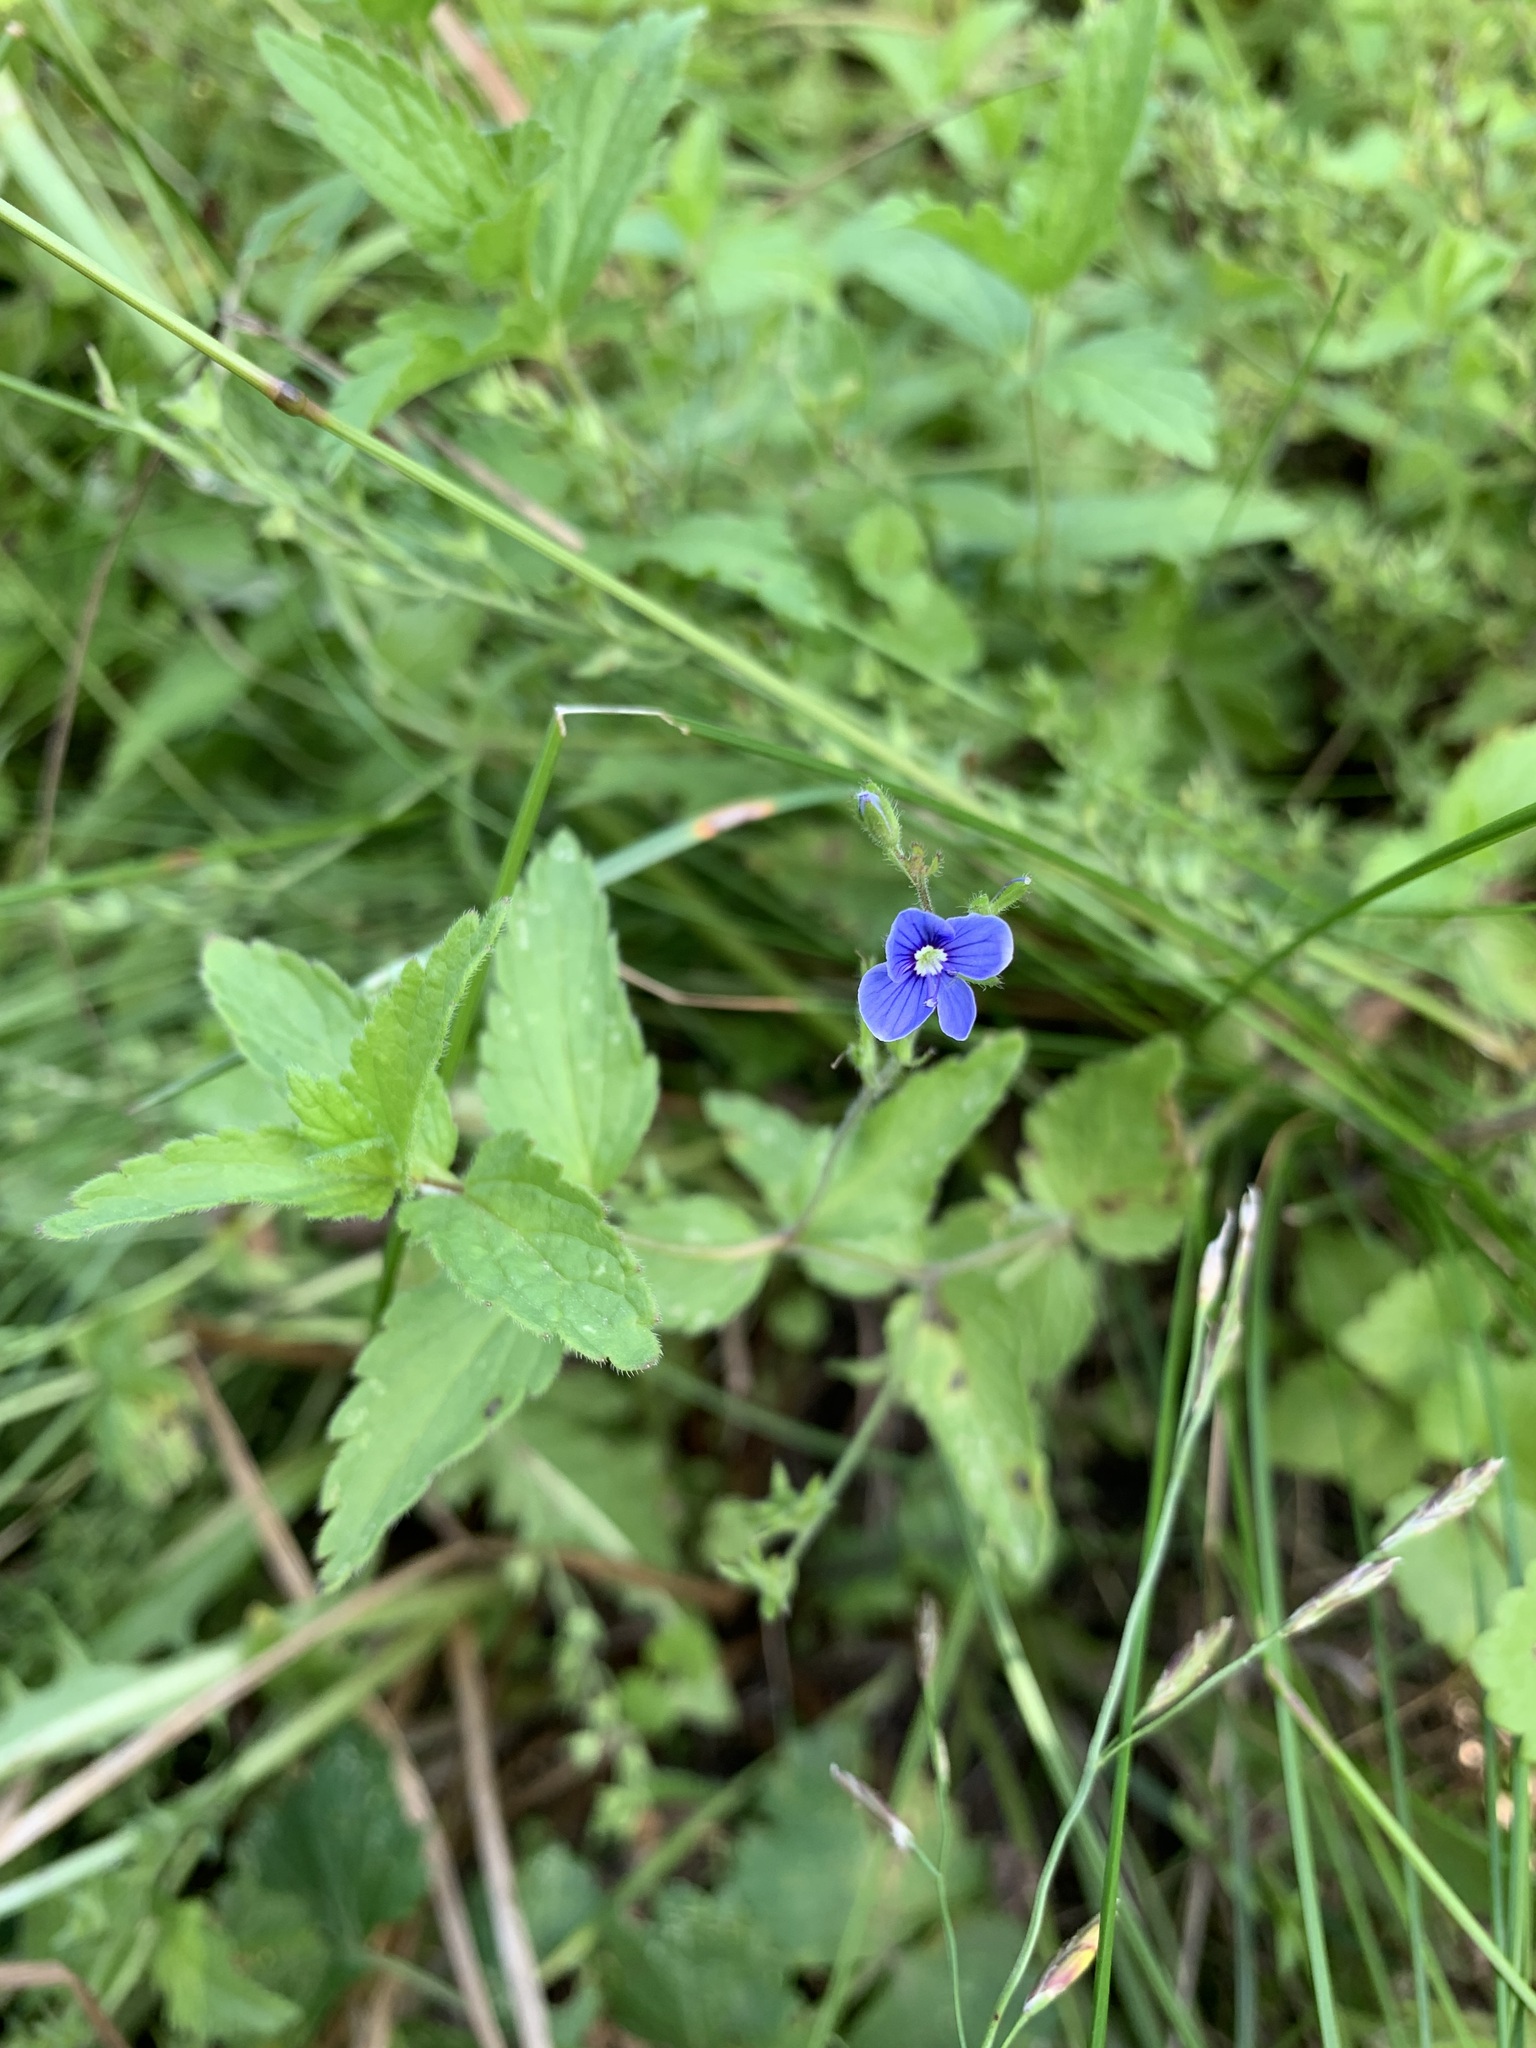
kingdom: Plantae
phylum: Tracheophyta
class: Magnoliopsida
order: Lamiales
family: Plantaginaceae
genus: Veronica
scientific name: Veronica chamaedrys
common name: Germander speedwell
